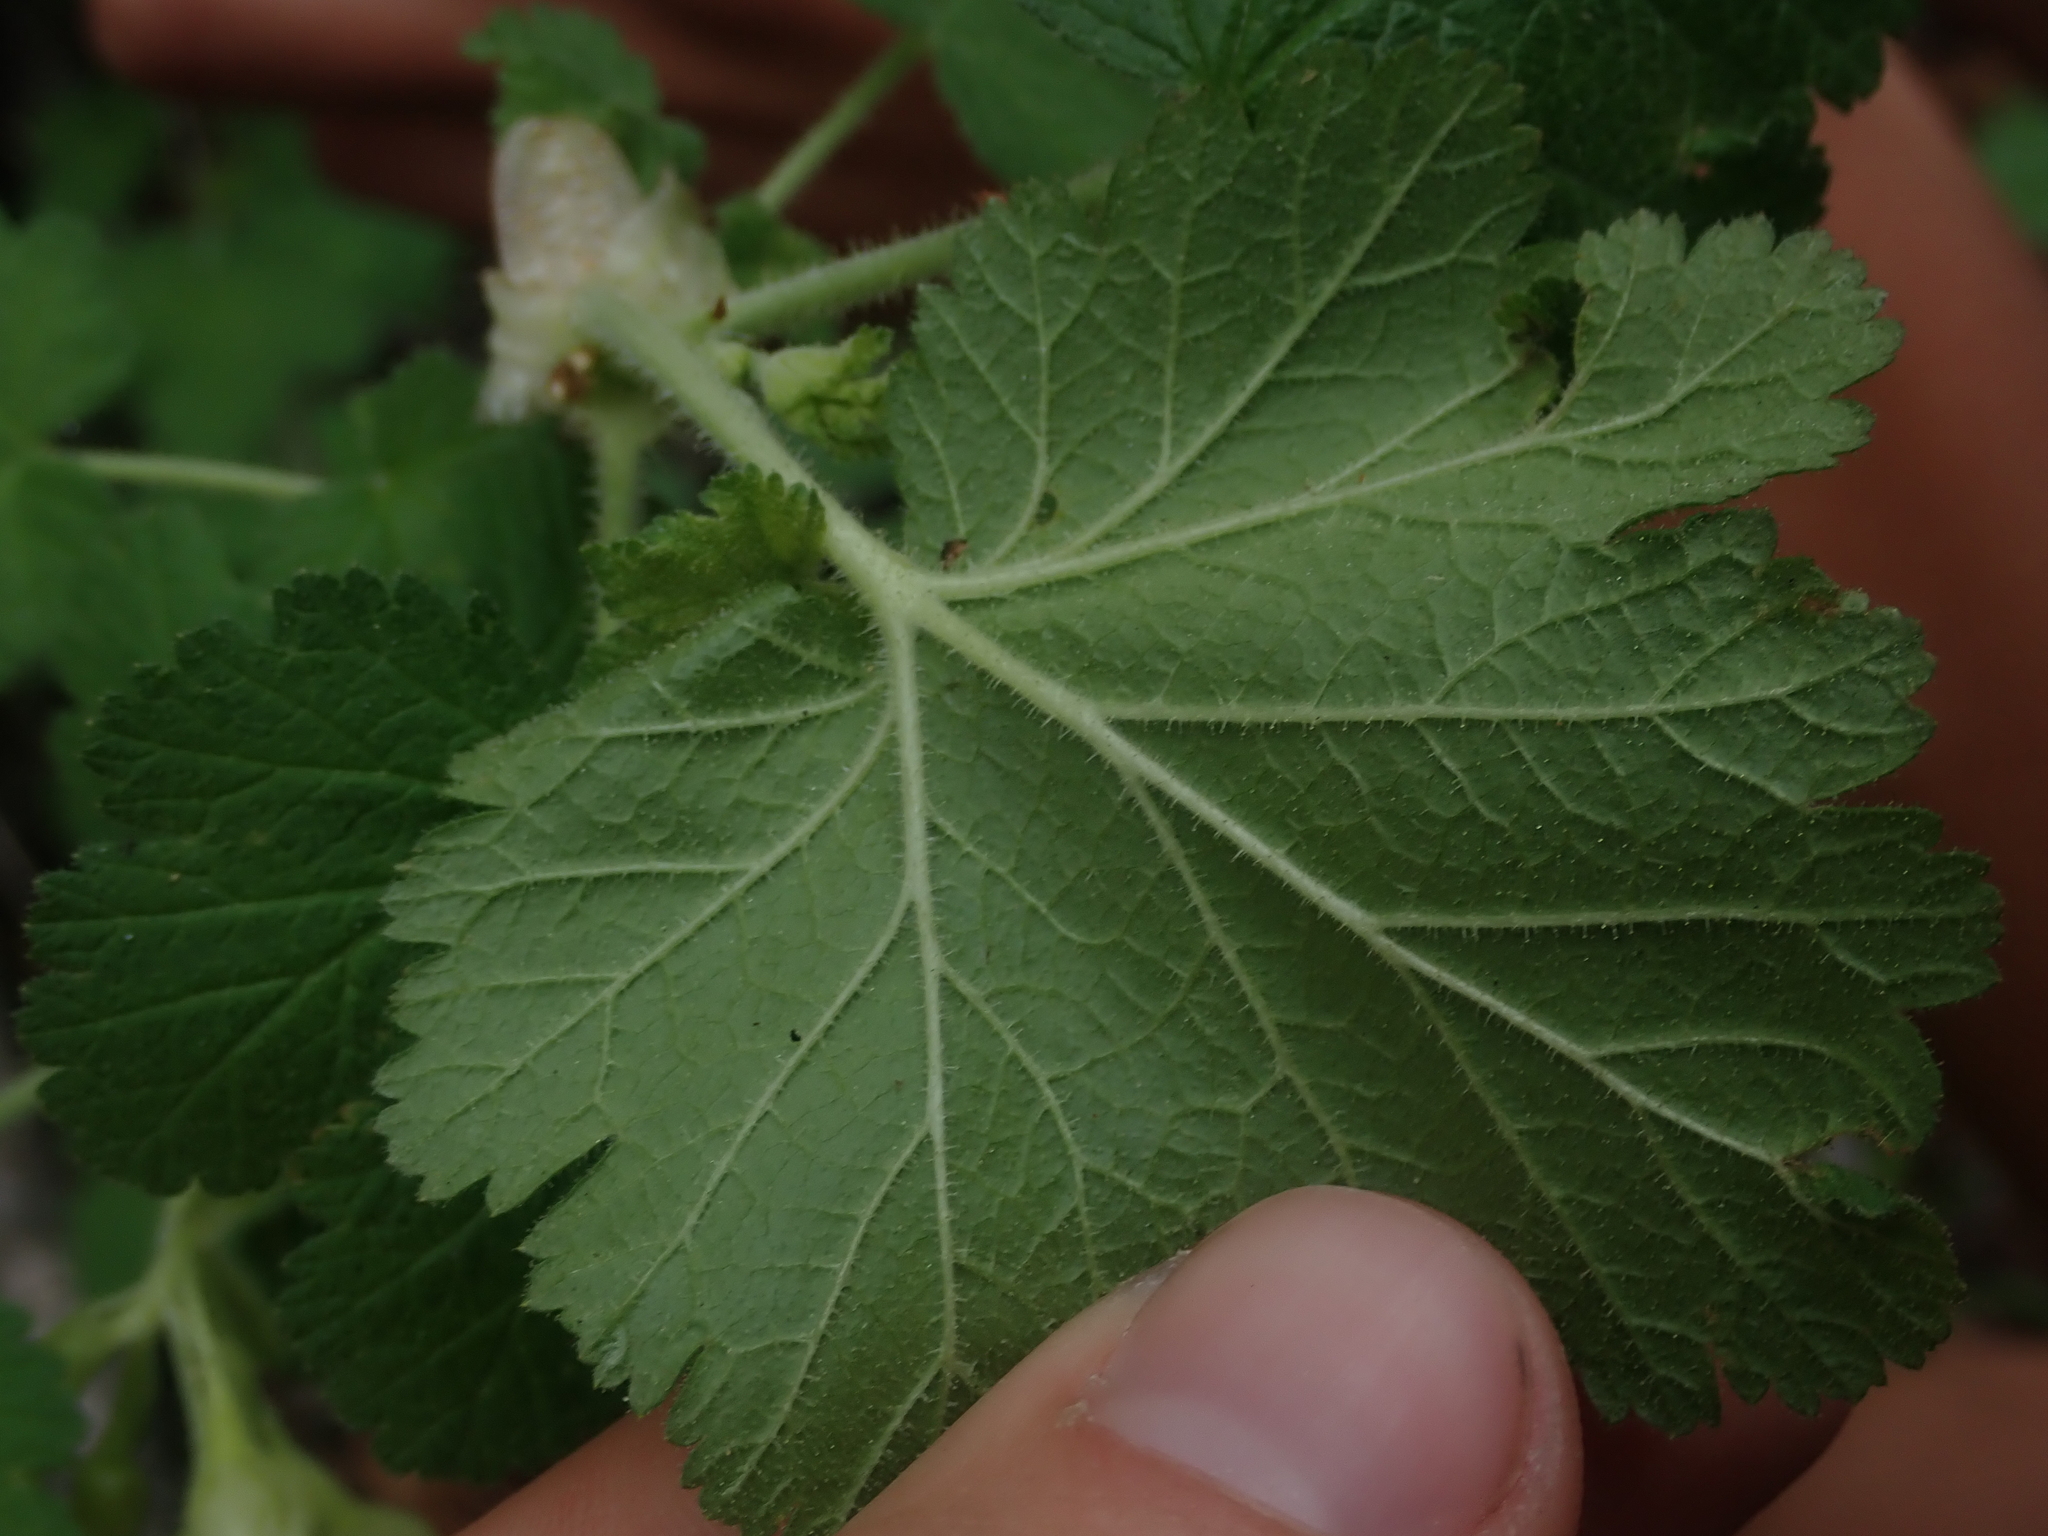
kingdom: Plantae
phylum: Tracheophyta
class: Magnoliopsida
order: Saxifragales
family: Grossulariaceae
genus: Ribes
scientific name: Ribes viscosissimum
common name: Sticky currant
